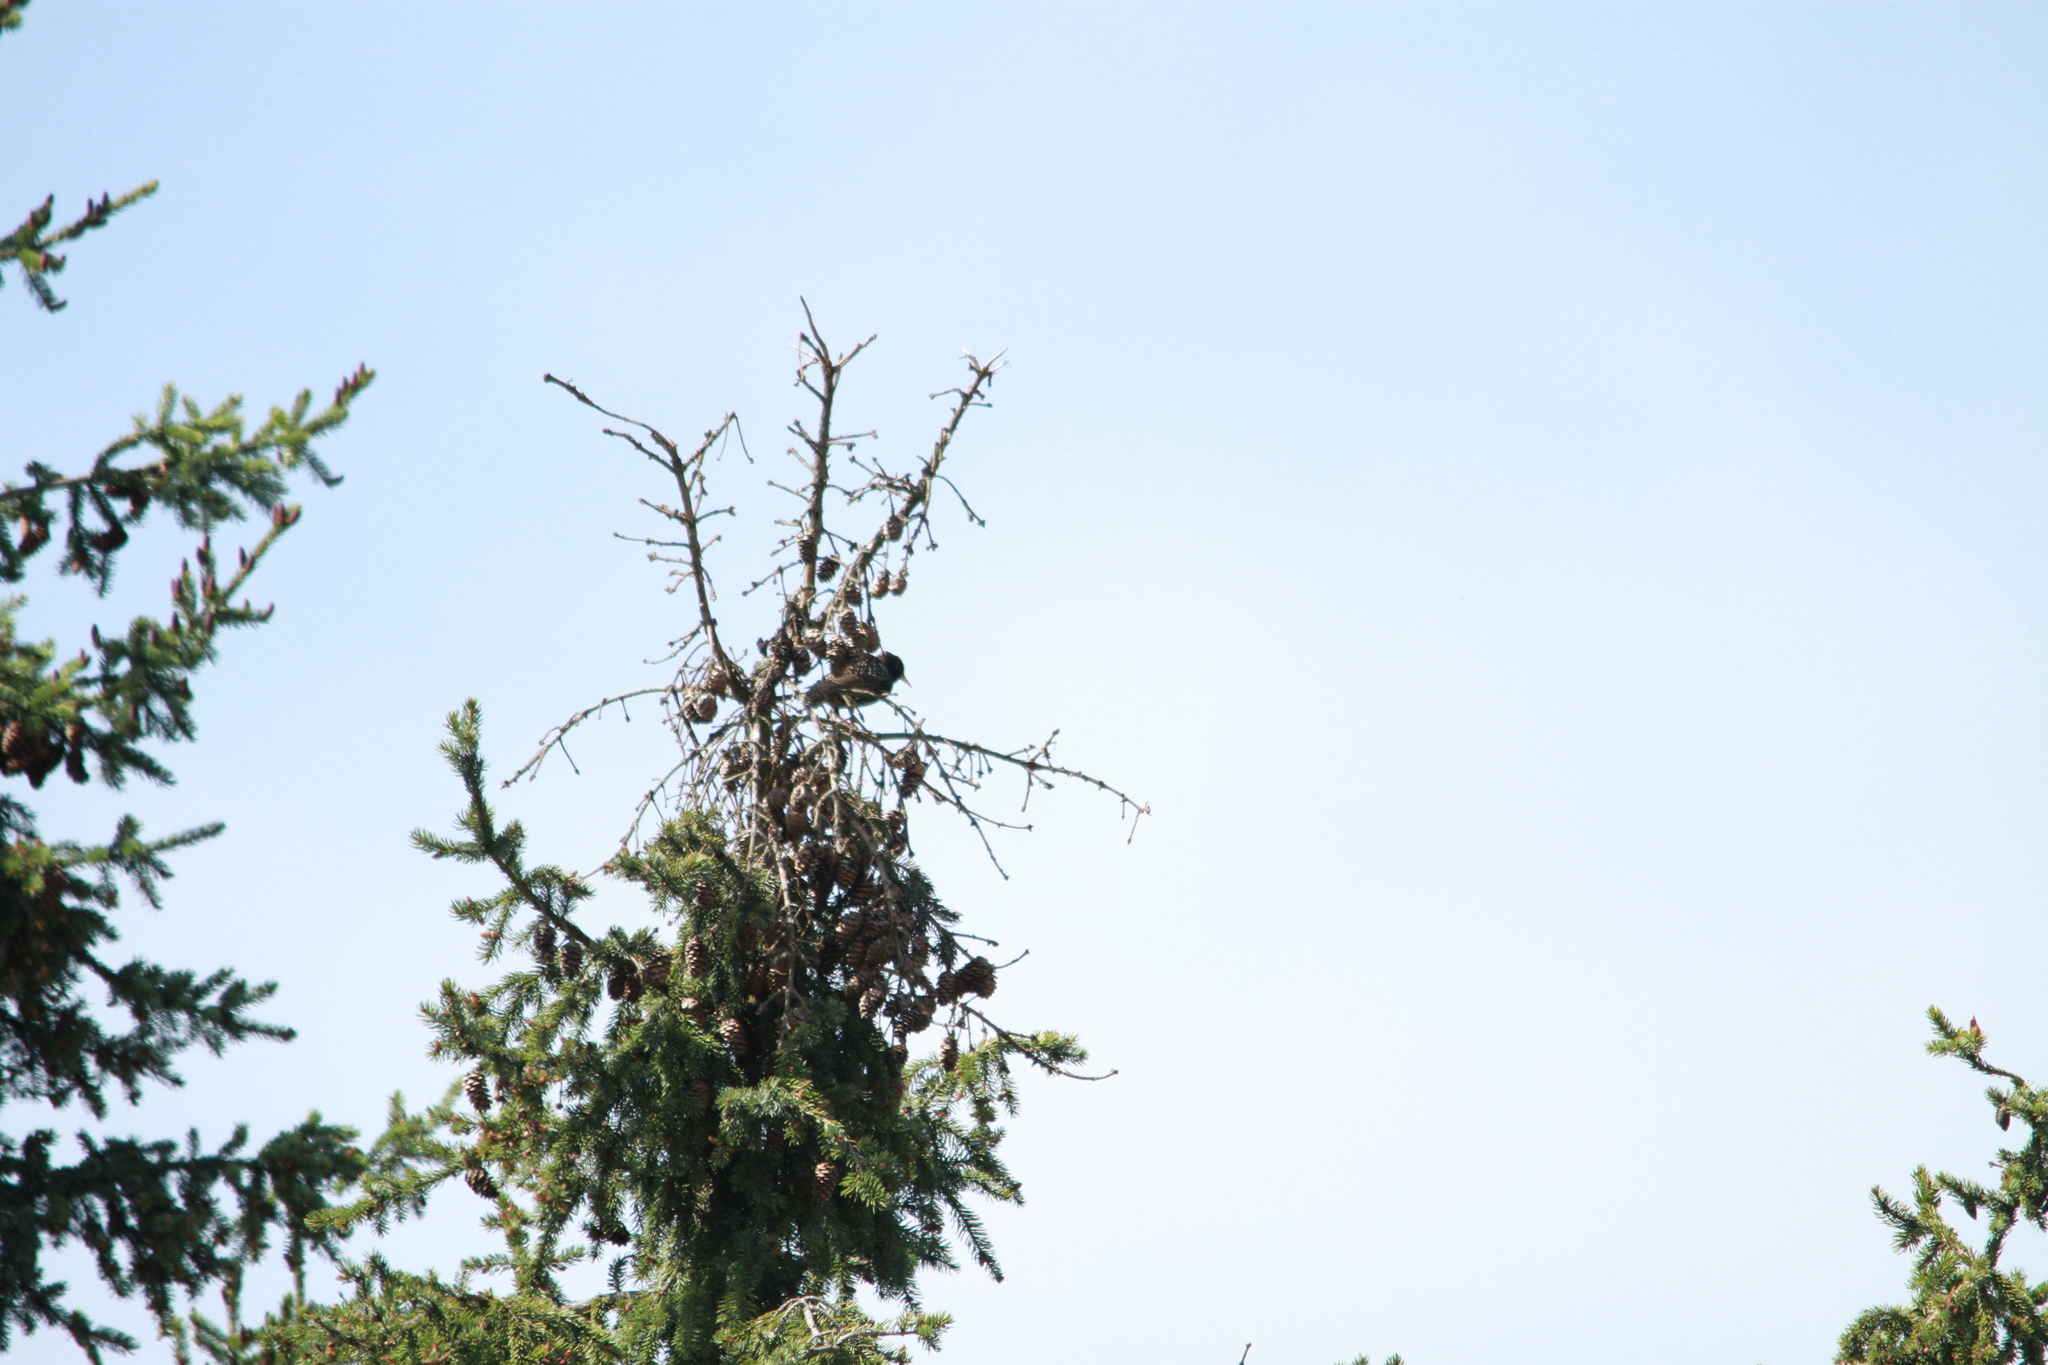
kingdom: Animalia
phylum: Chordata
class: Aves
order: Passeriformes
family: Sturnidae
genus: Sturnus
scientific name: Sturnus vulgaris
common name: Common starling
